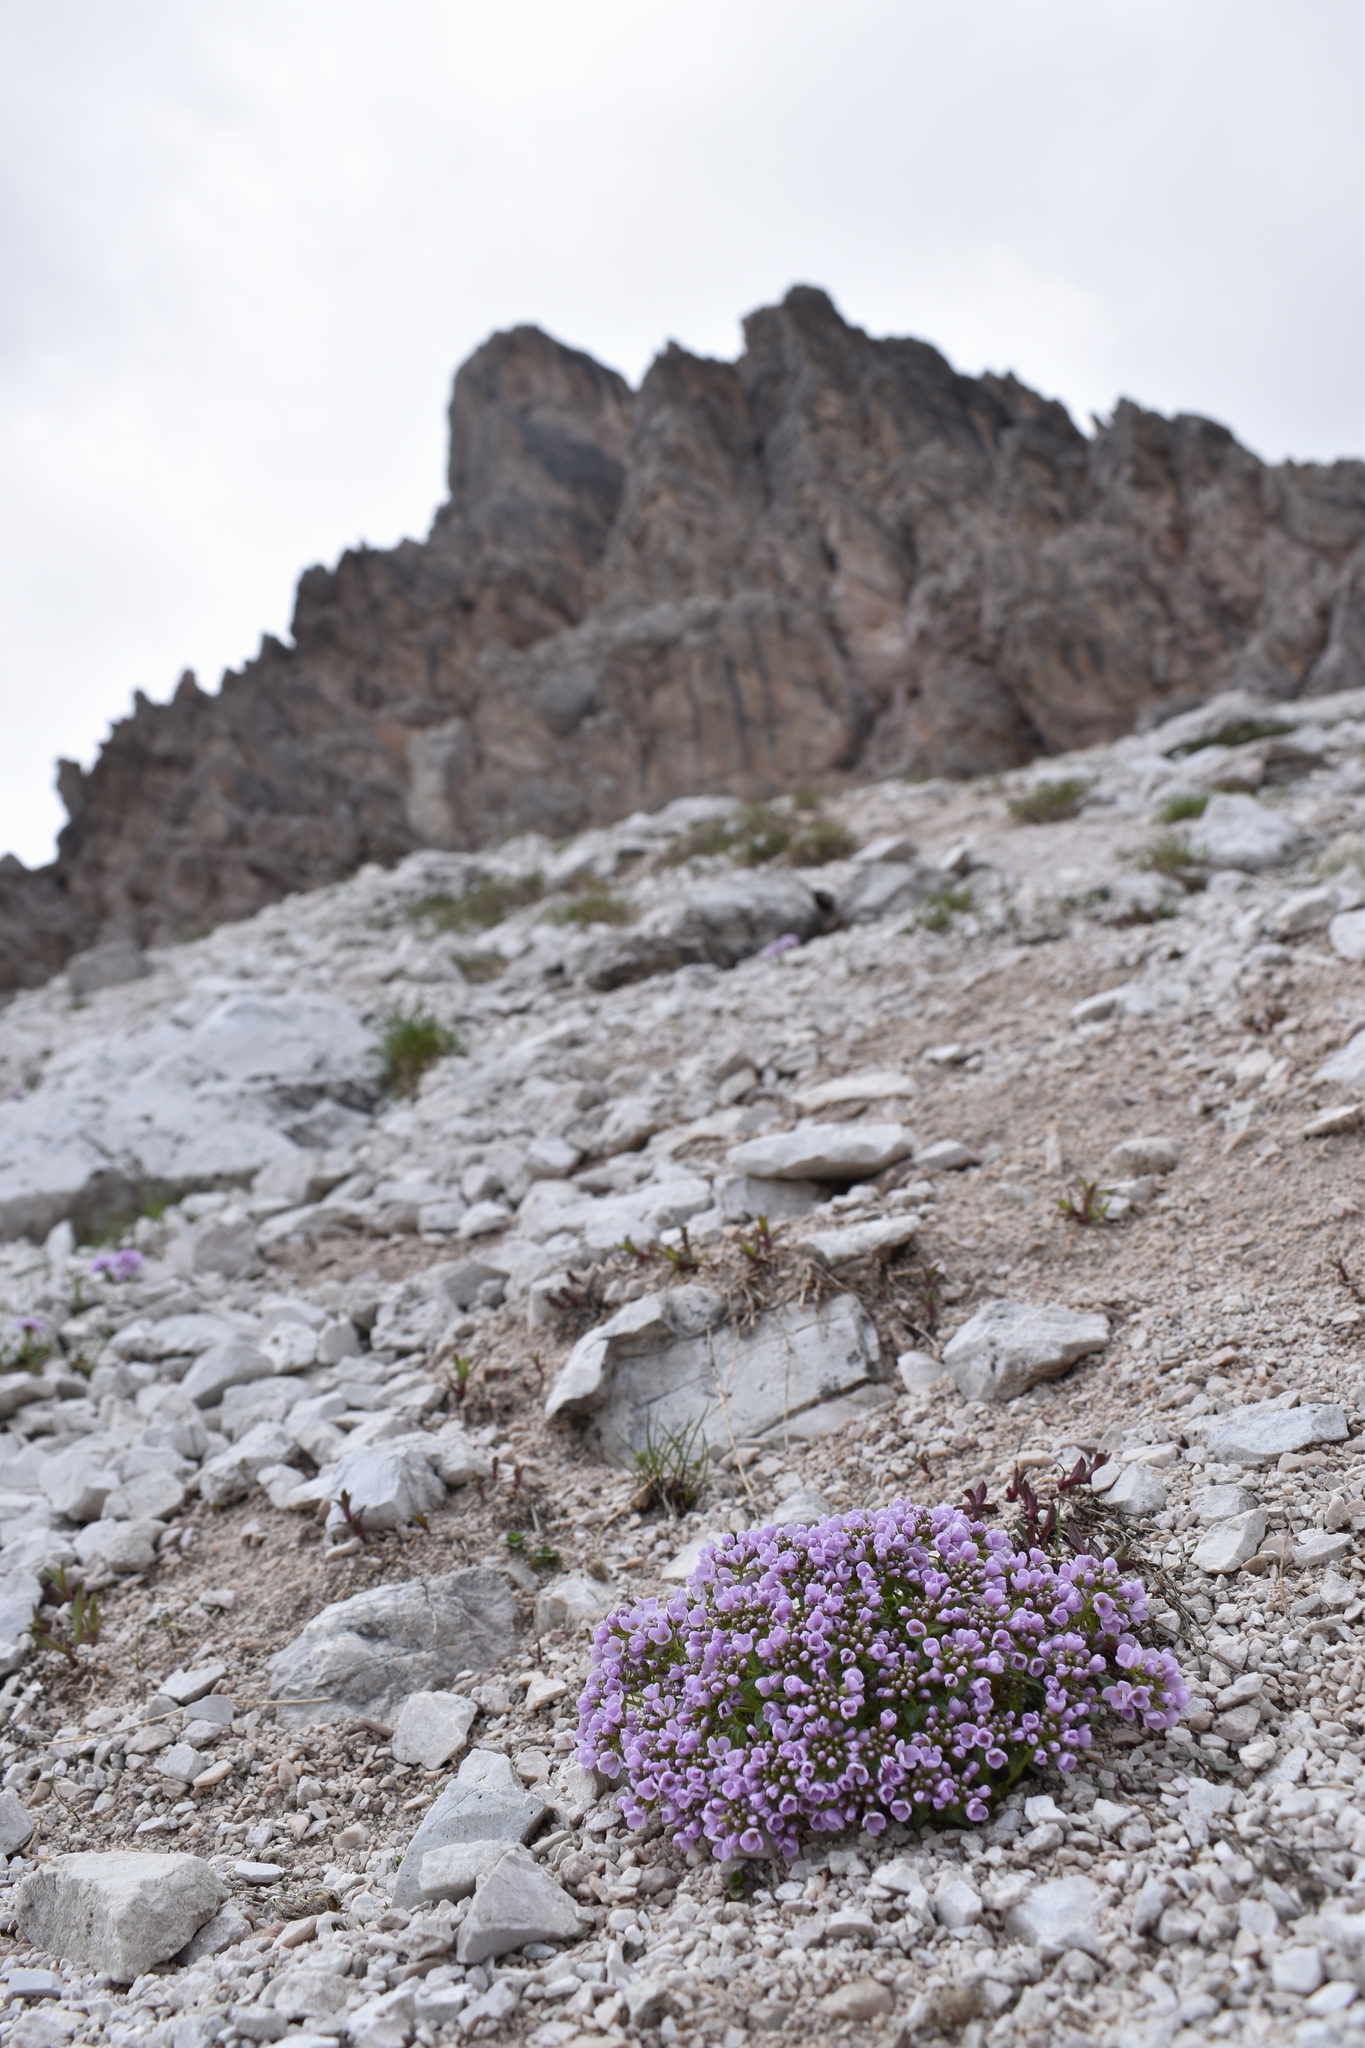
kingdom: Plantae
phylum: Tracheophyta
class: Magnoliopsida
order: Brassicales
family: Brassicaceae
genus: Noccaea
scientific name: Noccaea rotundifolia
